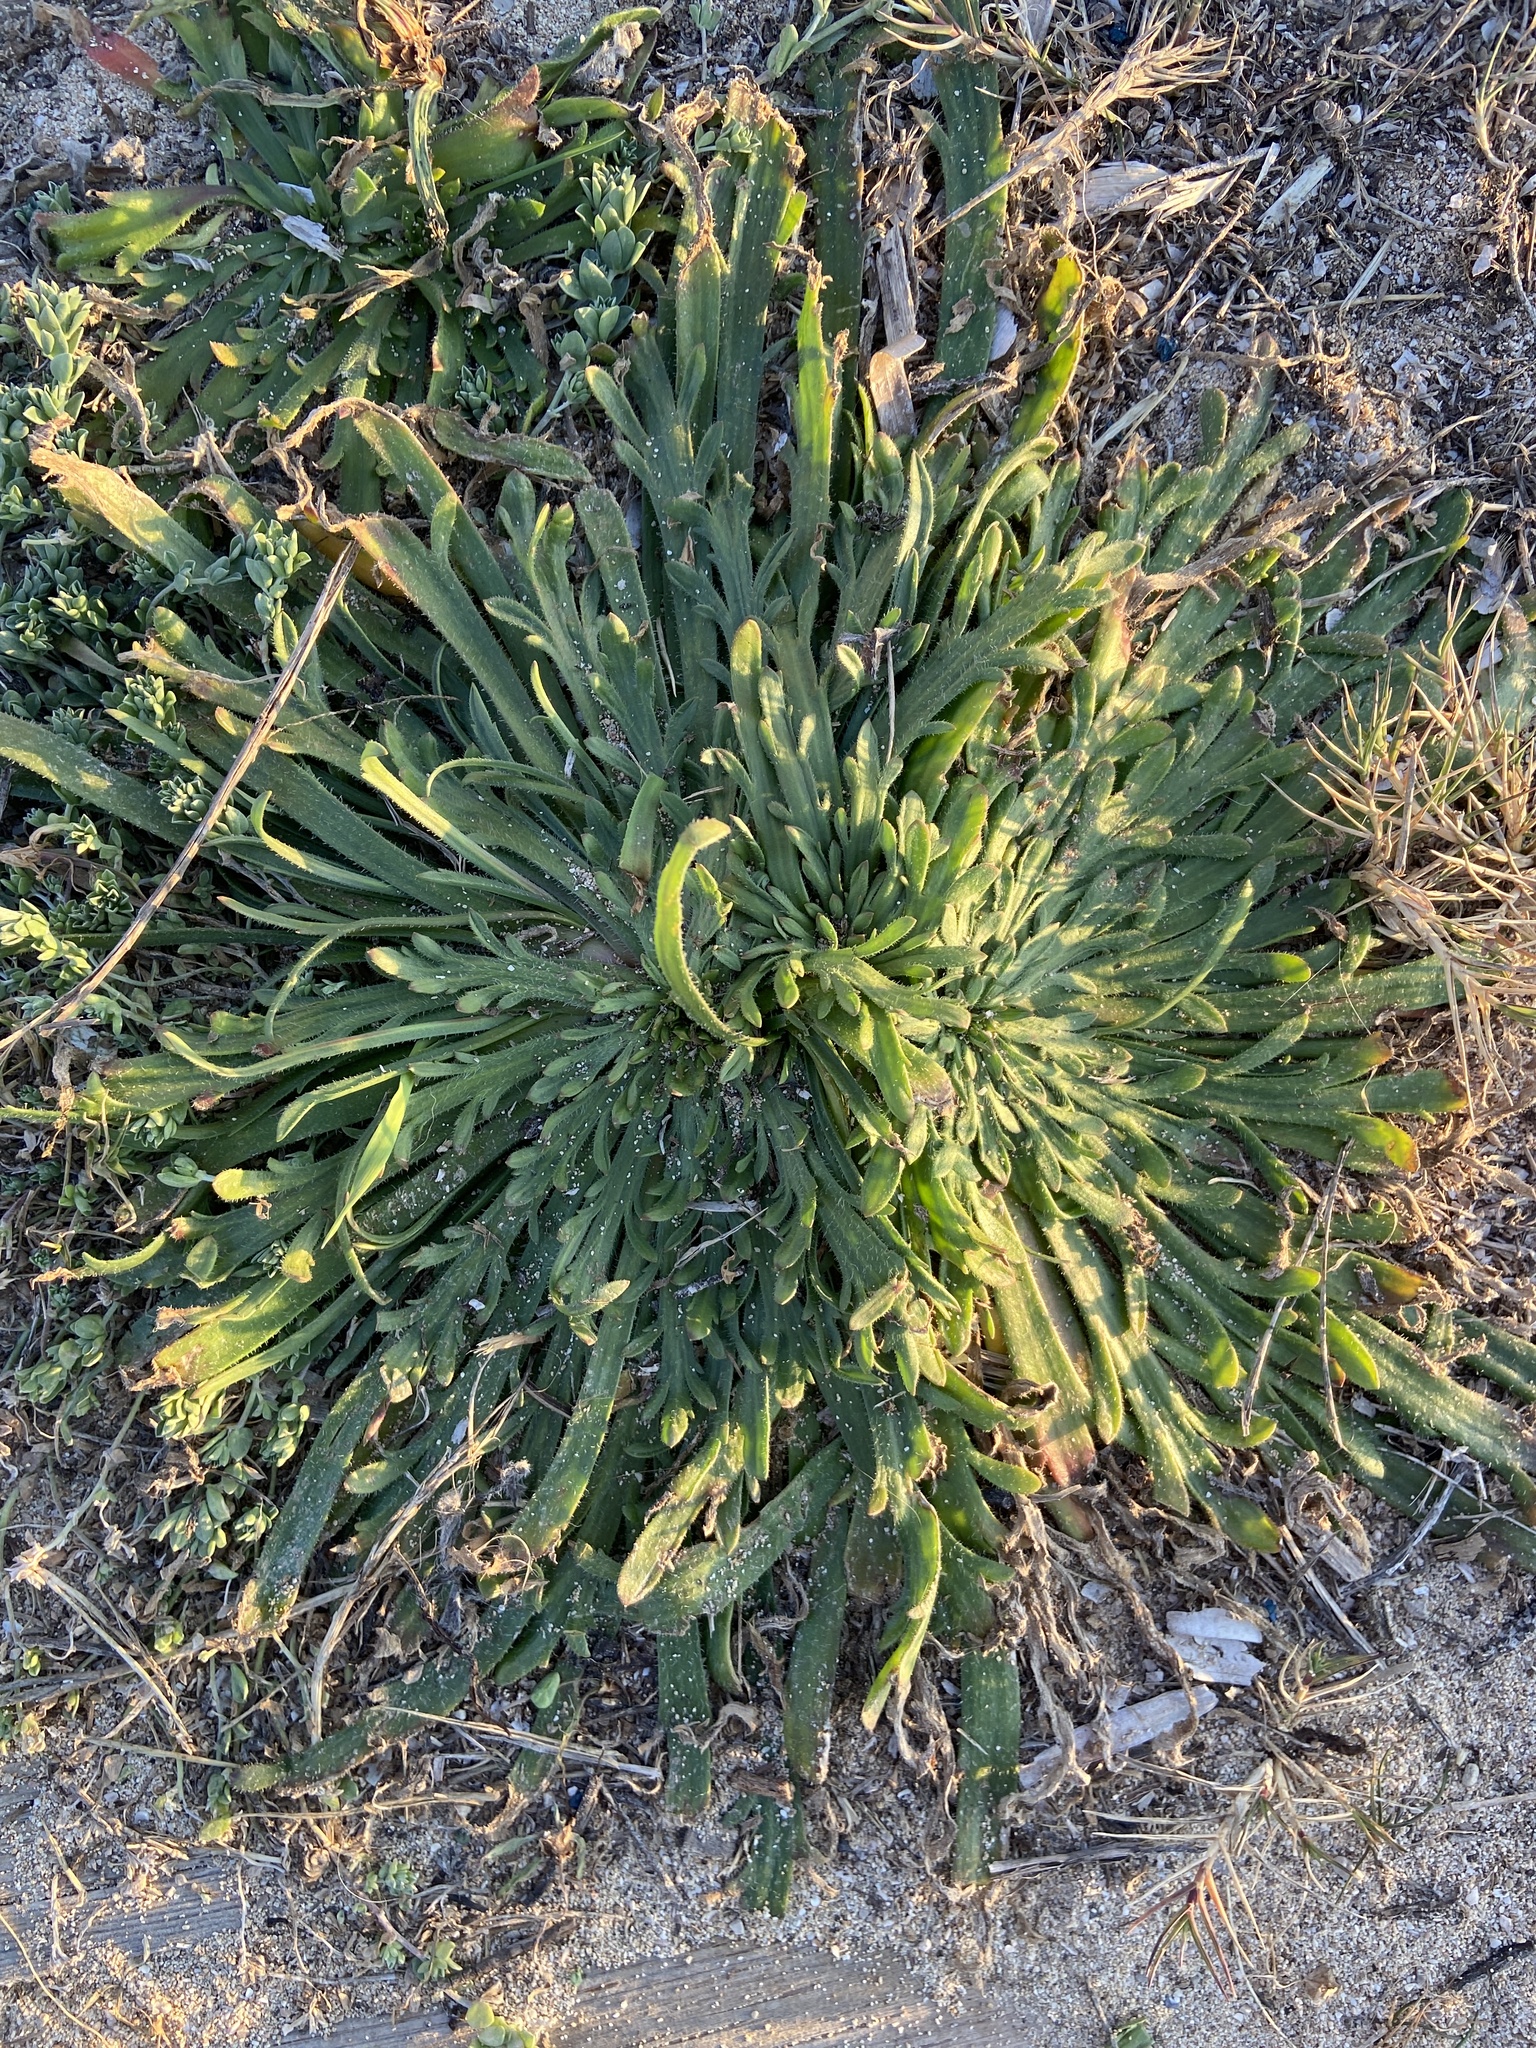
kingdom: Plantae
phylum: Tracheophyta
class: Magnoliopsida
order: Lamiales
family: Plantaginaceae
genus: Plantago
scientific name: Plantago coronopus
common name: Buck's-horn plantain
